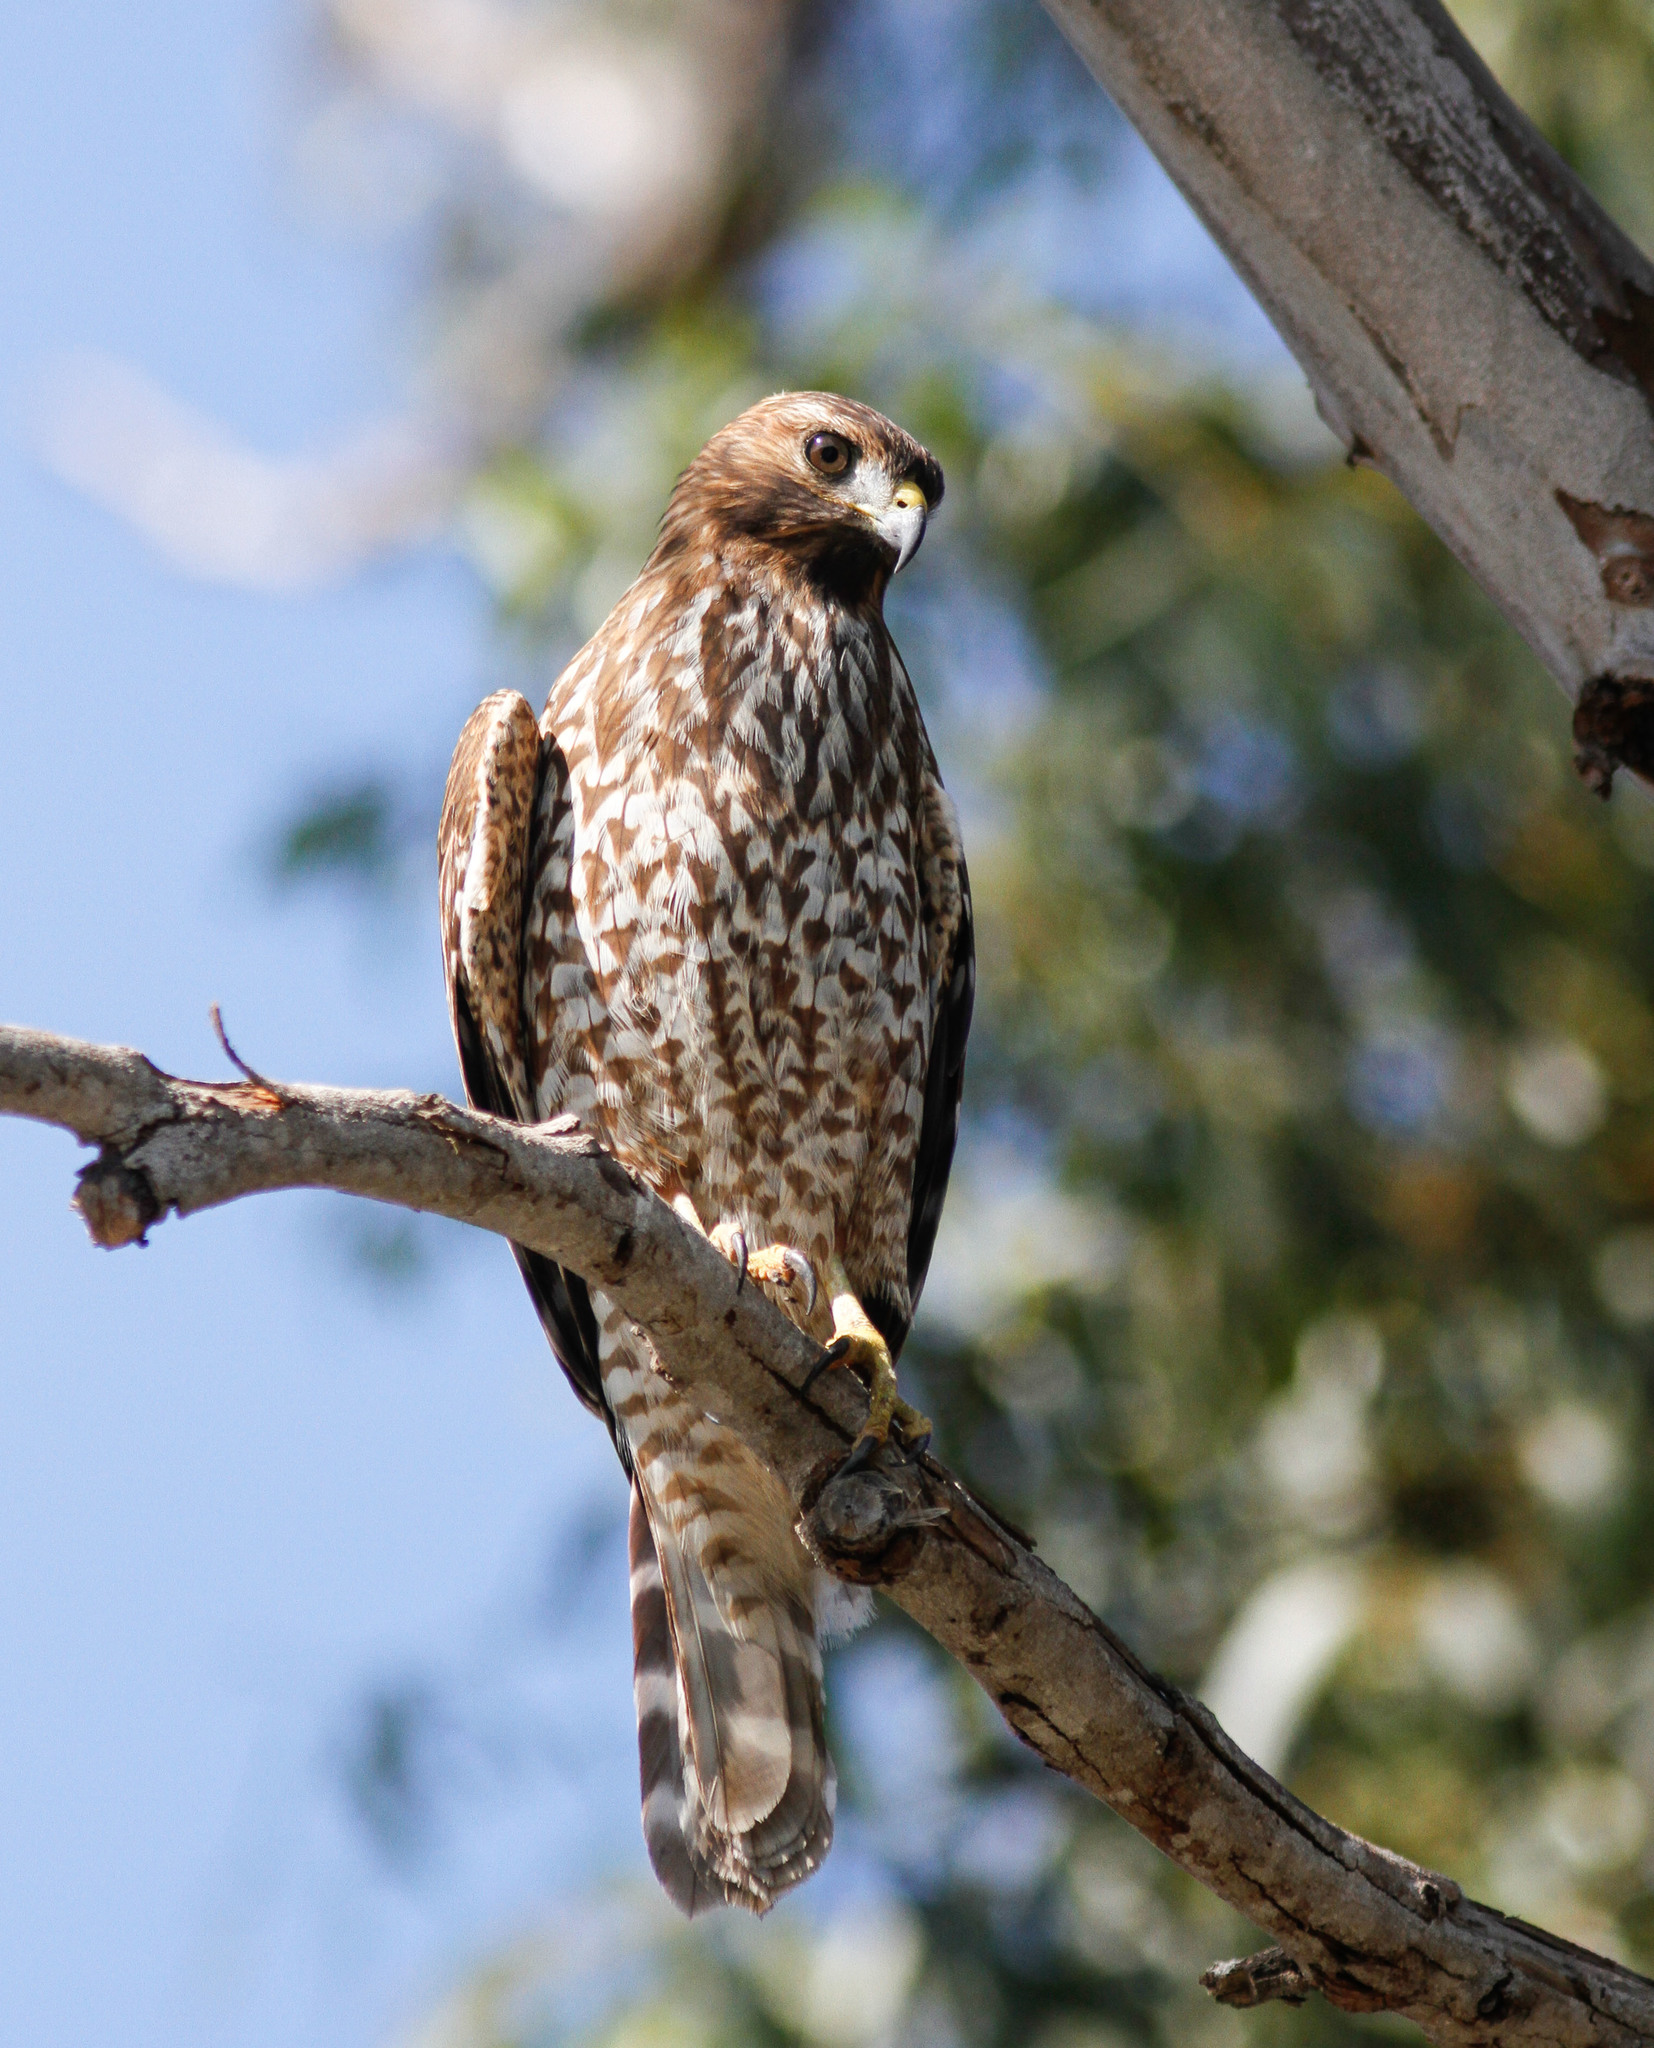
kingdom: Animalia
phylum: Chordata
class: Aves
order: Accipitriformes
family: Accipitridae
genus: Buteo
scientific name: Buteo lineatus
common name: Red-shouldered hawk
